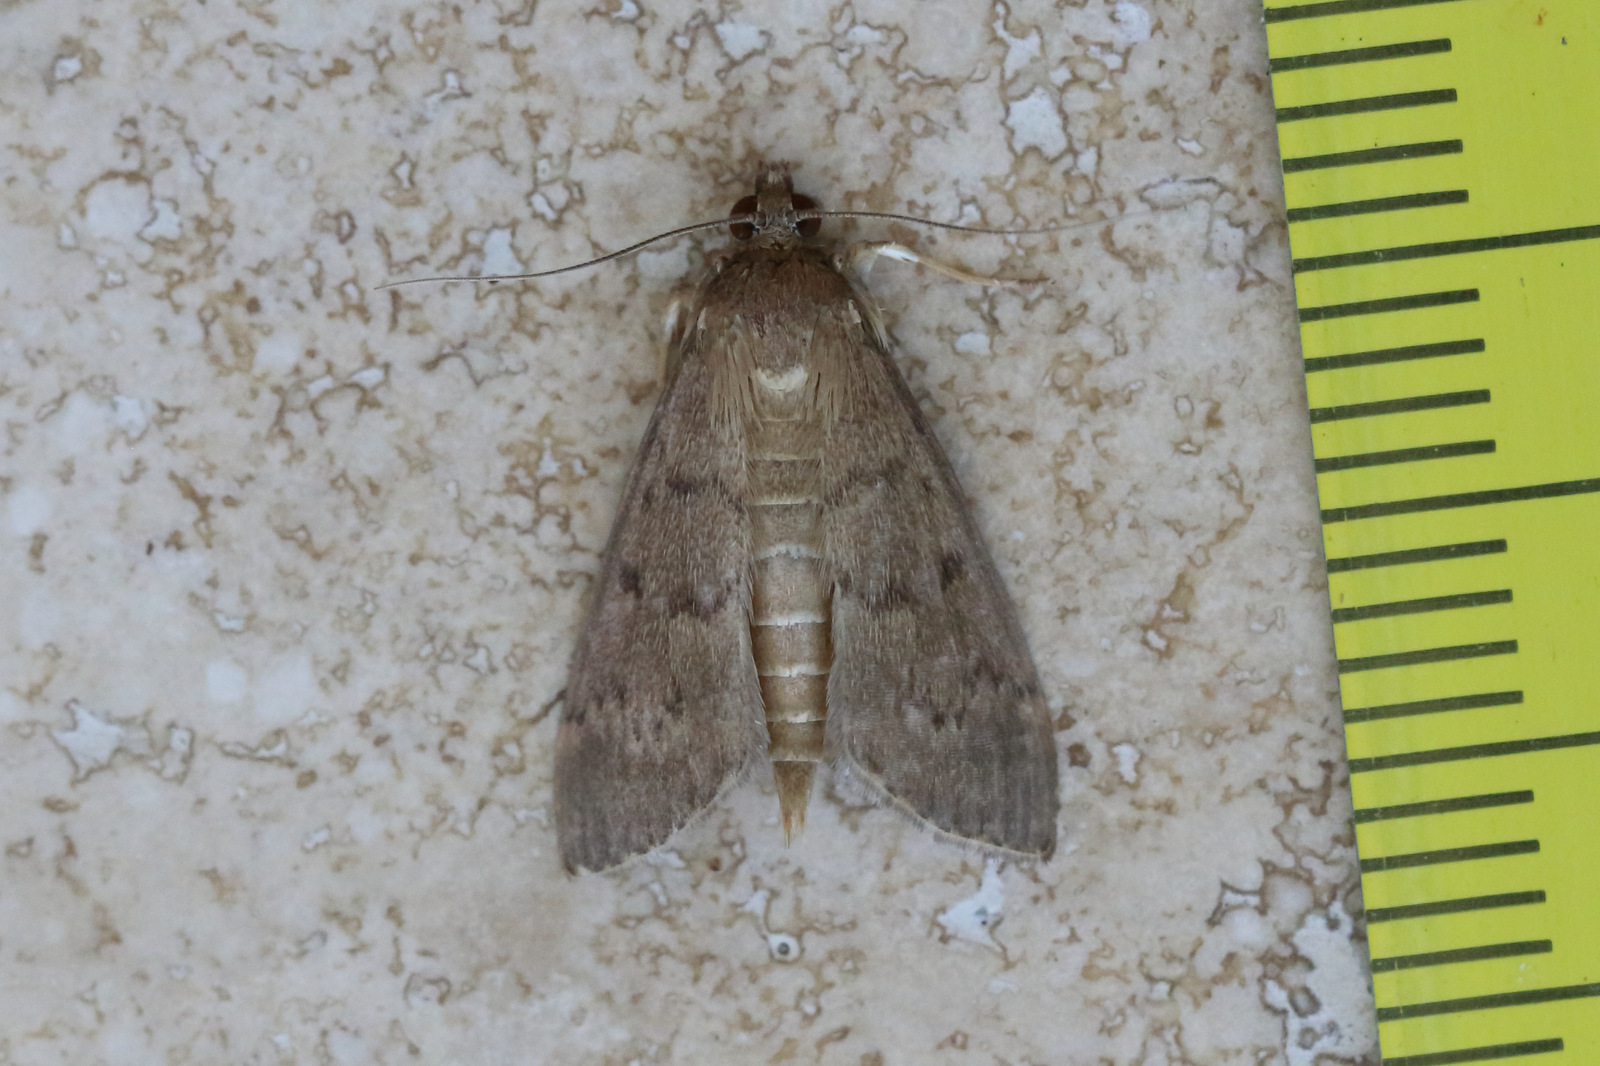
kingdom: Animalia
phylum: Arthropoda
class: Insecta
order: Lepidoptera
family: Crambidae
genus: Herpetogramma
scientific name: Herpetogramma licarsisalis
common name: Grass webworm
